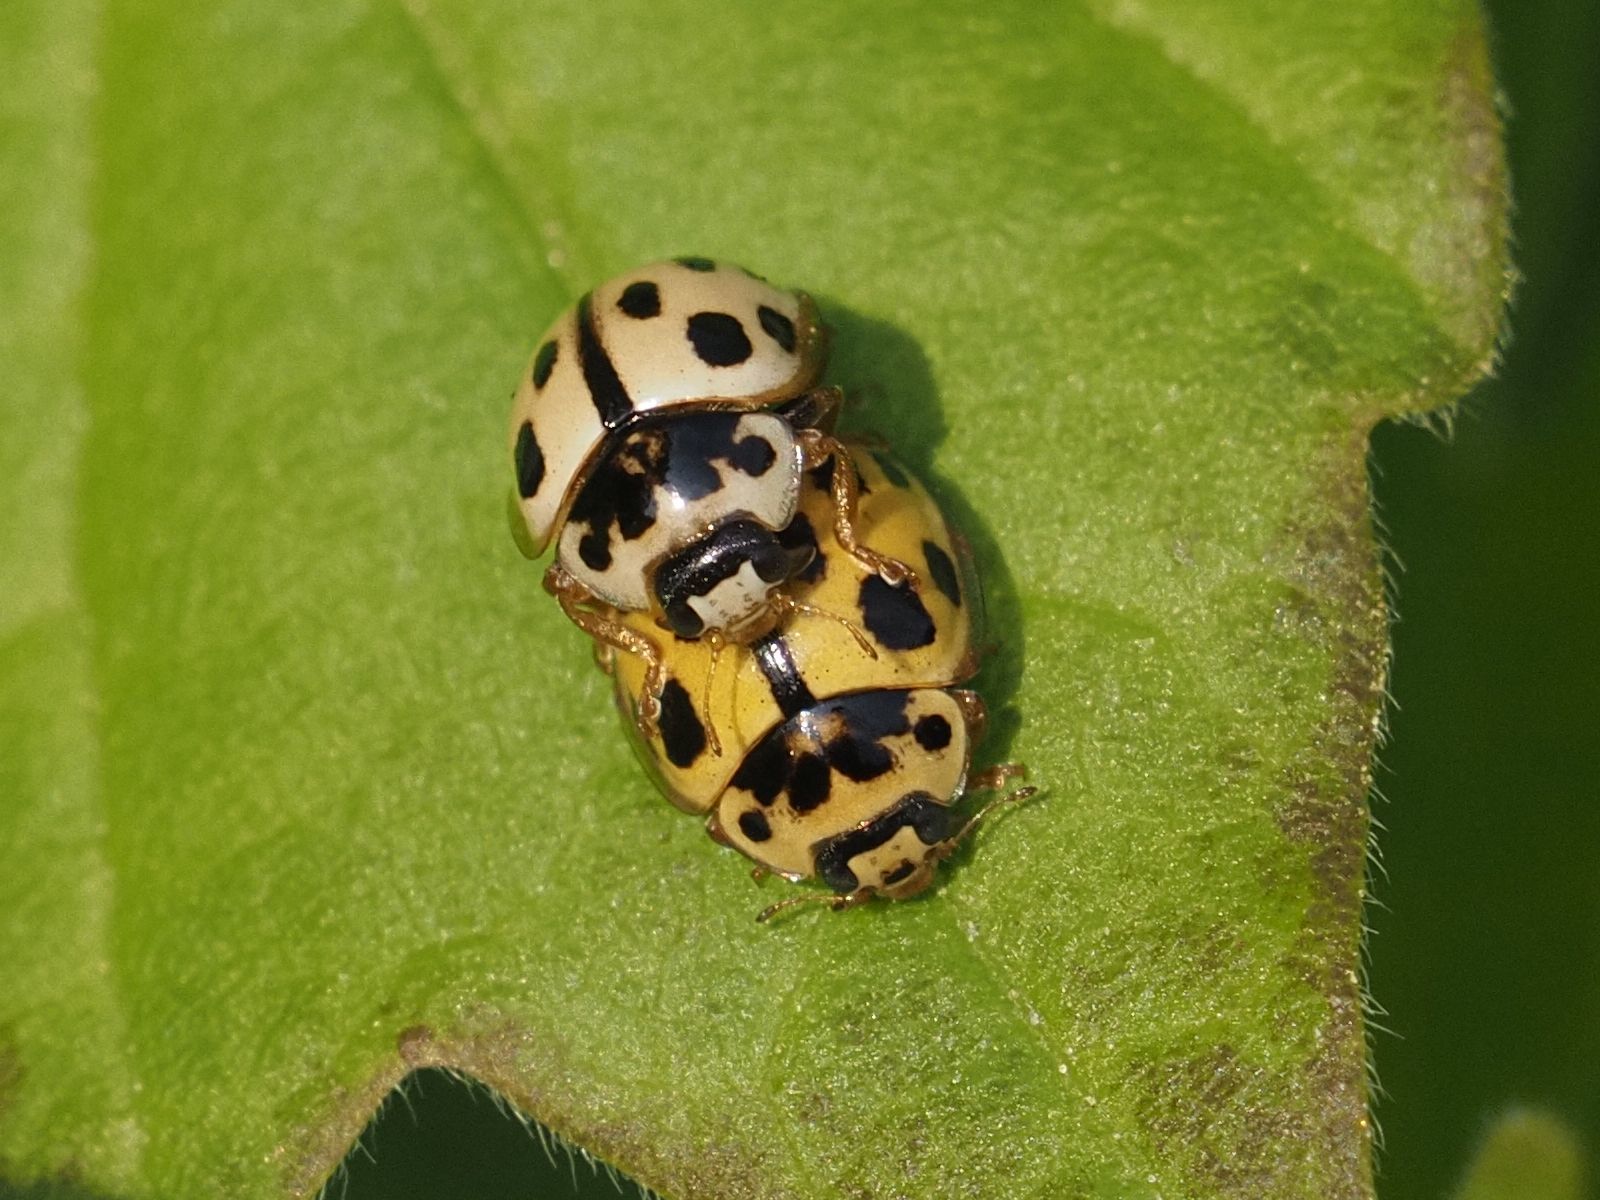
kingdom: Animalia
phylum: Arthropoda
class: Insecta
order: Coleoptera
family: Coccinellidae
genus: Propylaea
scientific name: Propylaea quatuordecimpunctata
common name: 14-spotted ladybird beetle
